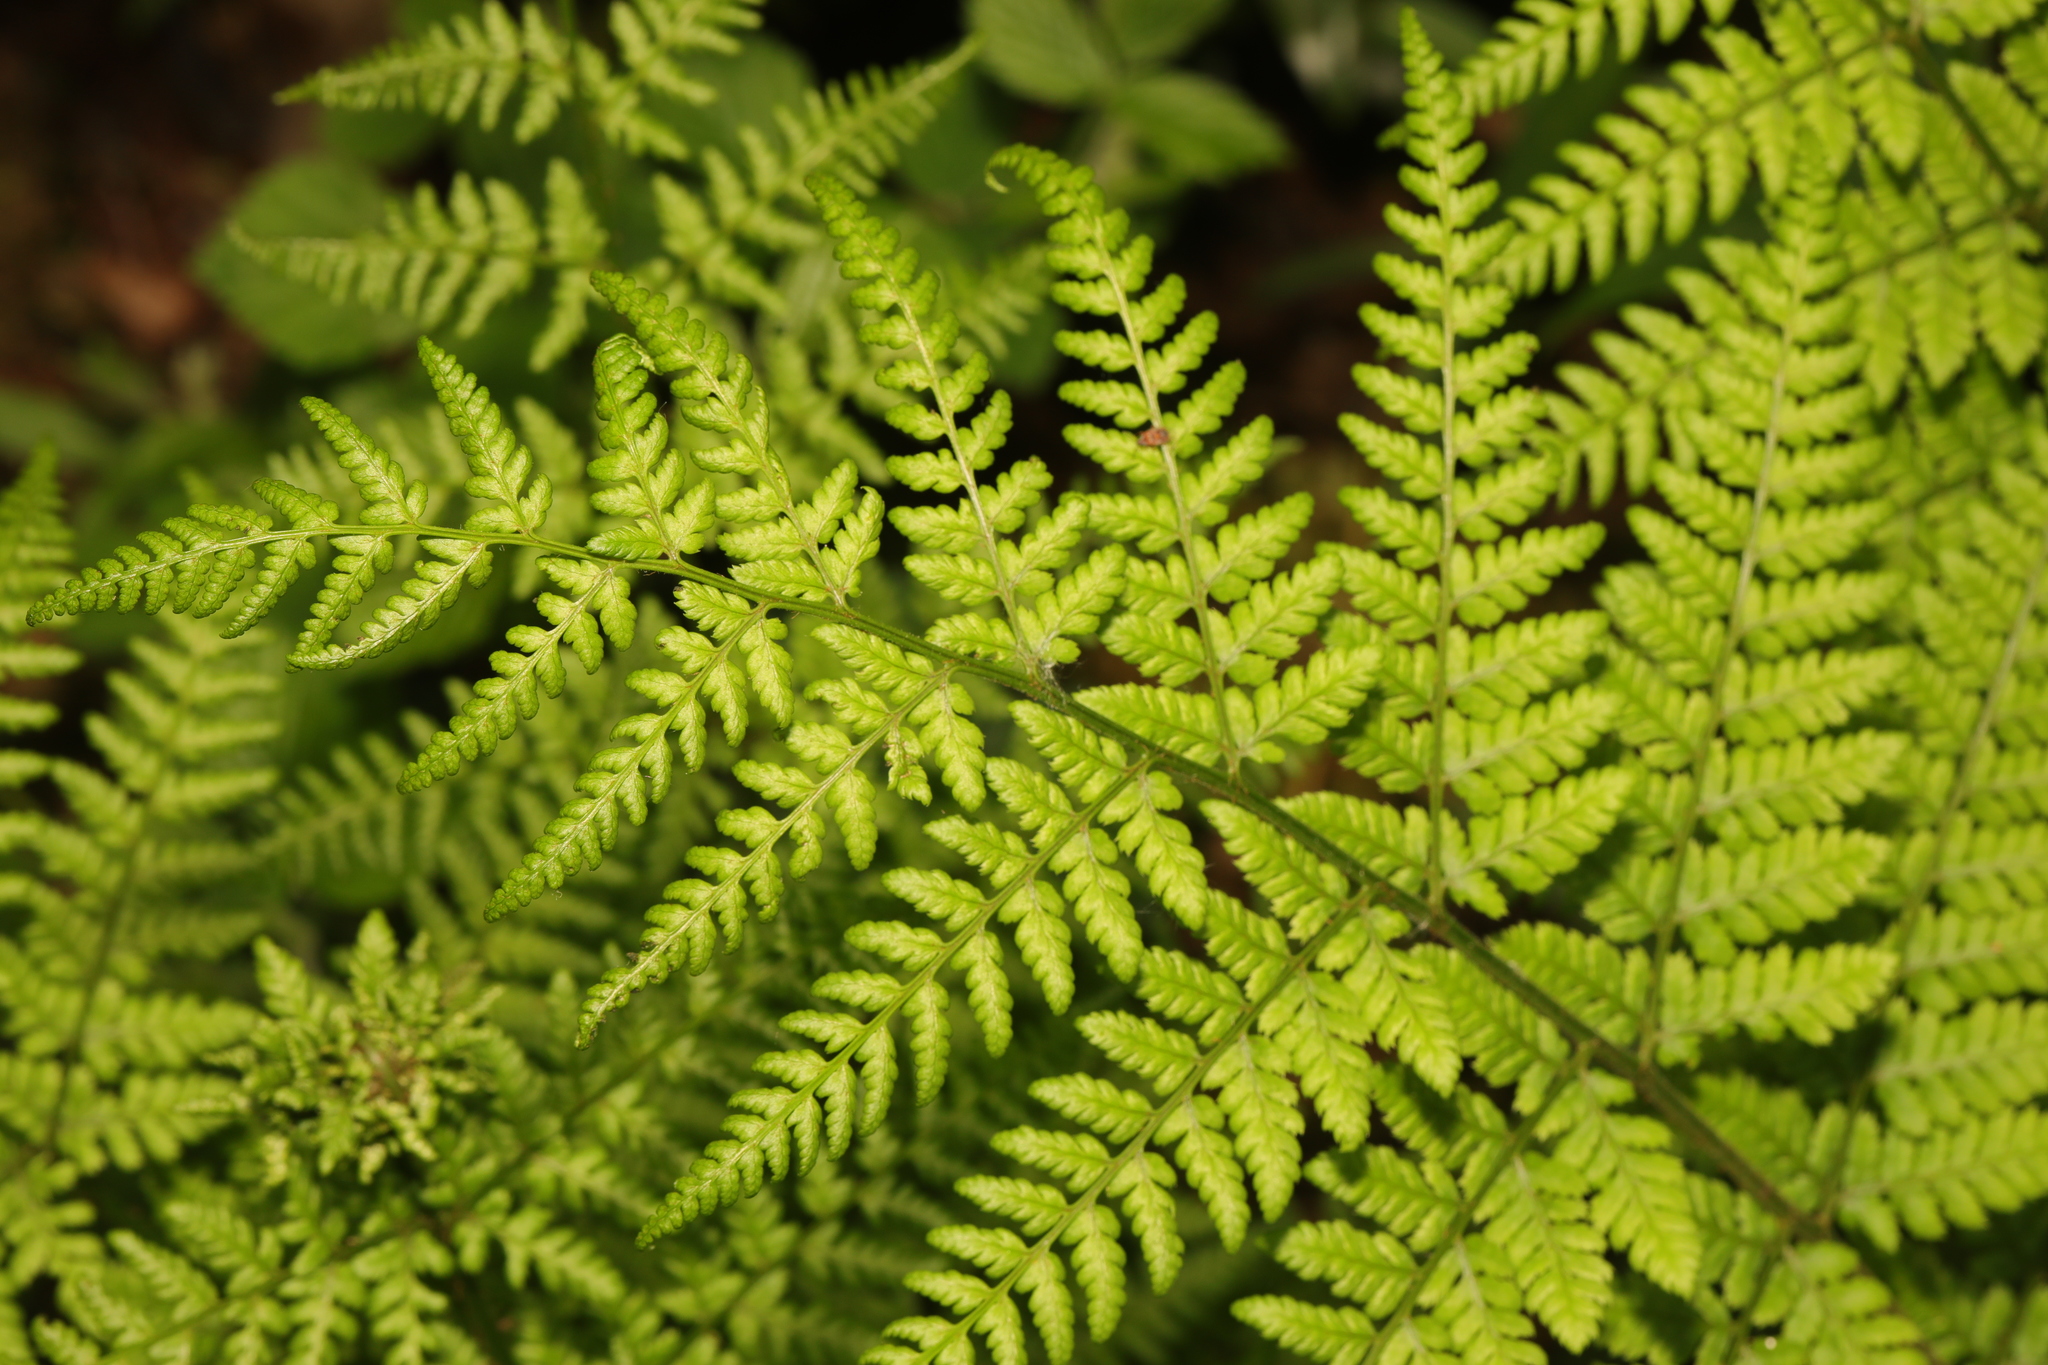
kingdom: Plantae
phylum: Tracheophyta
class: Polypodiopsida
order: Polypodiales
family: Dryopteridaceae
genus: Dryopteris
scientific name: Dryopteris dilatata
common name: Broad buckler-fern
